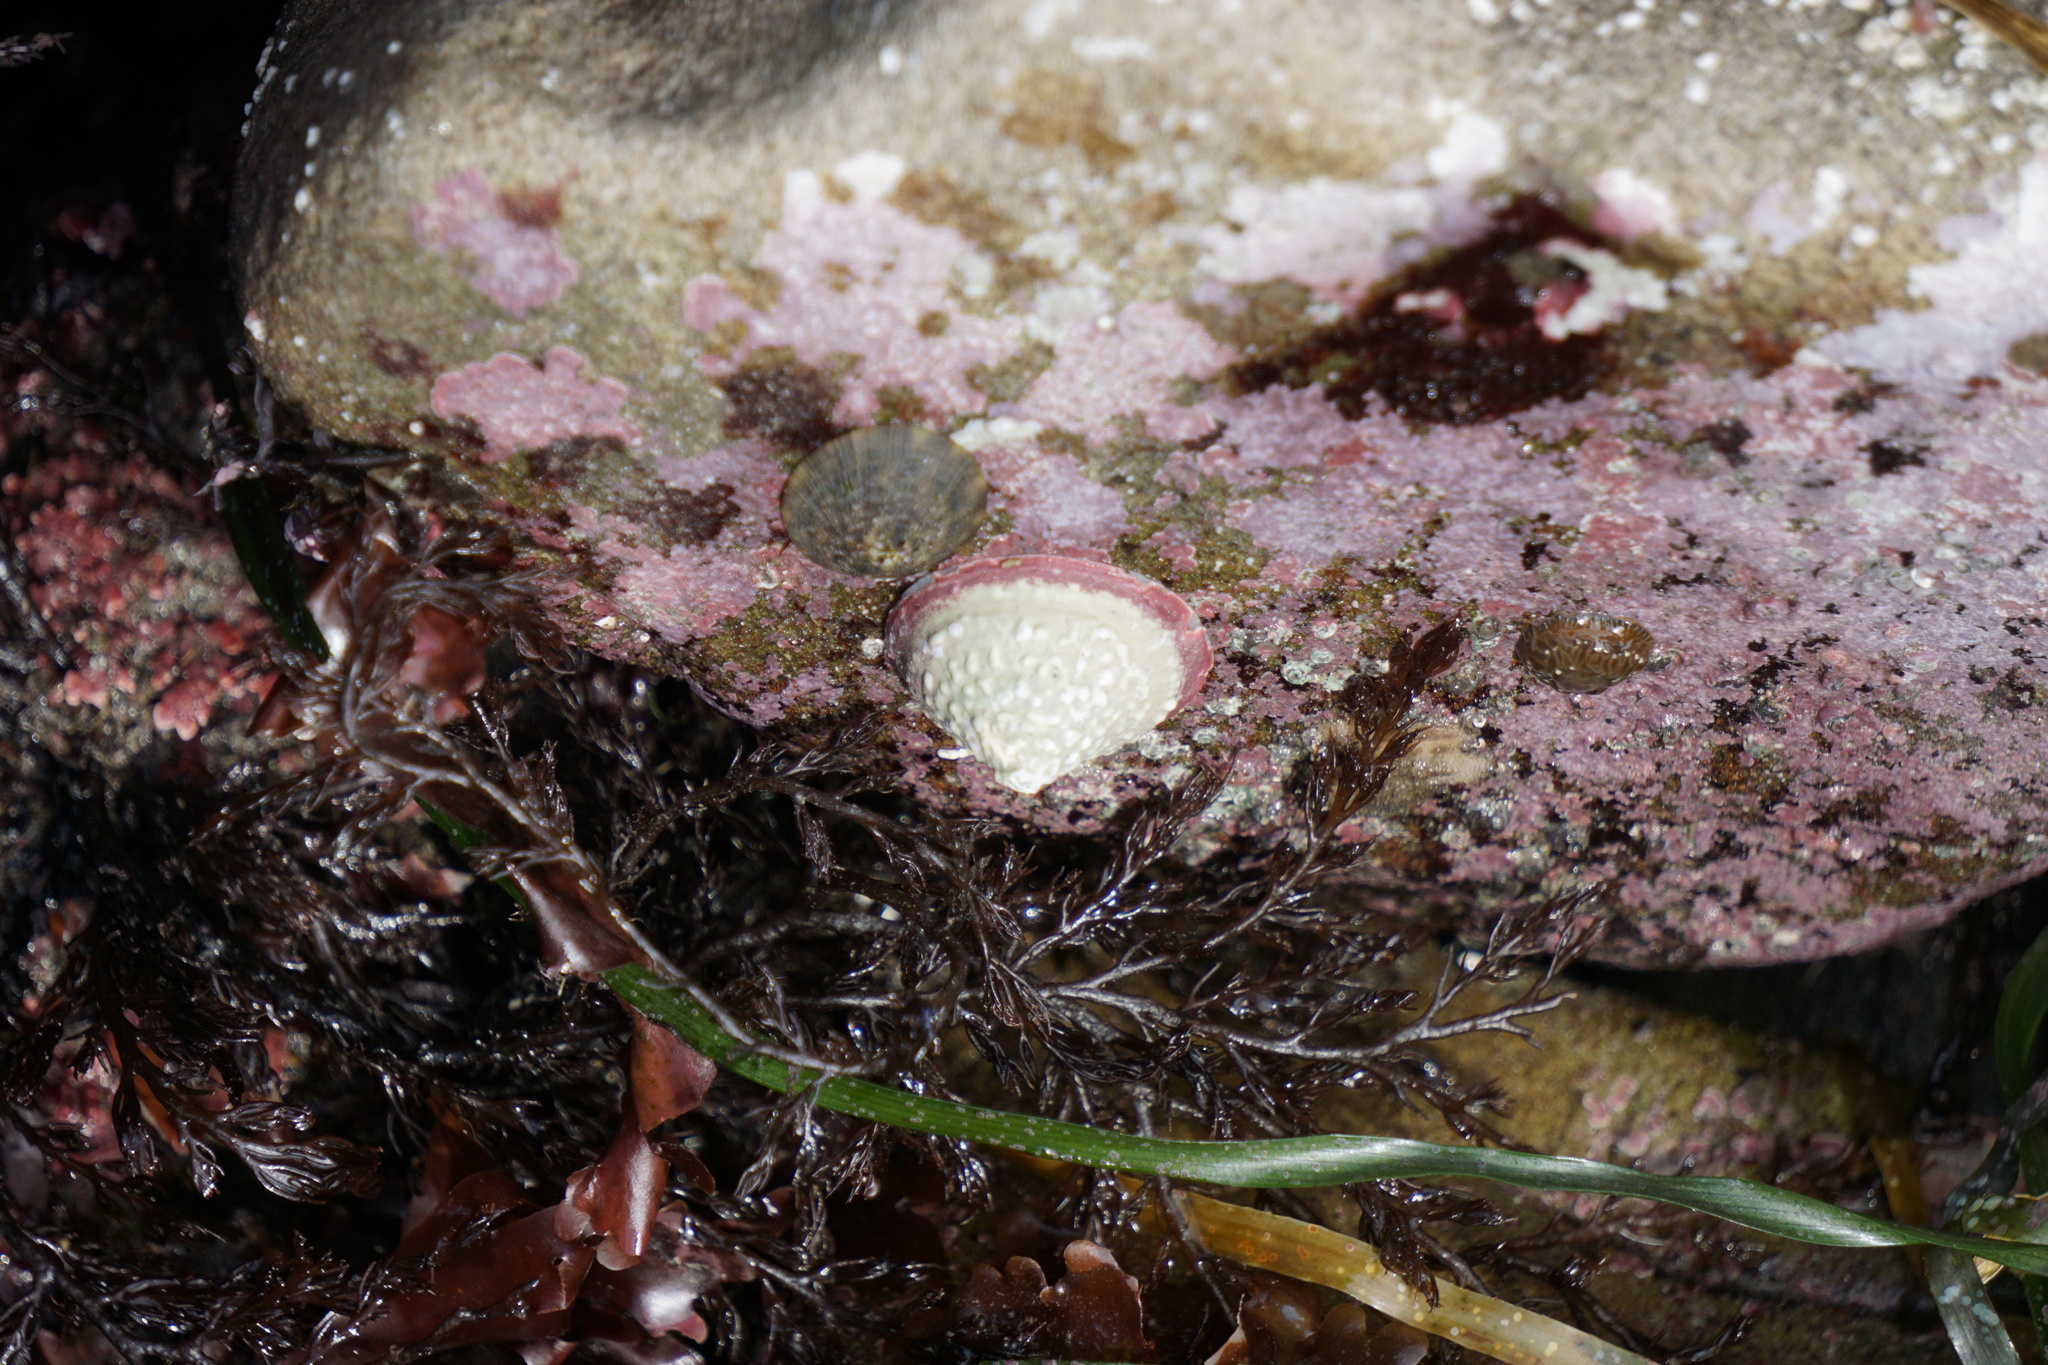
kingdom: Animalia
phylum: Mollusca
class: Gastropoda
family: Acmaeidae
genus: Acmaea
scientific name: Acmaea mitra
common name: Pacific white cap limpet
